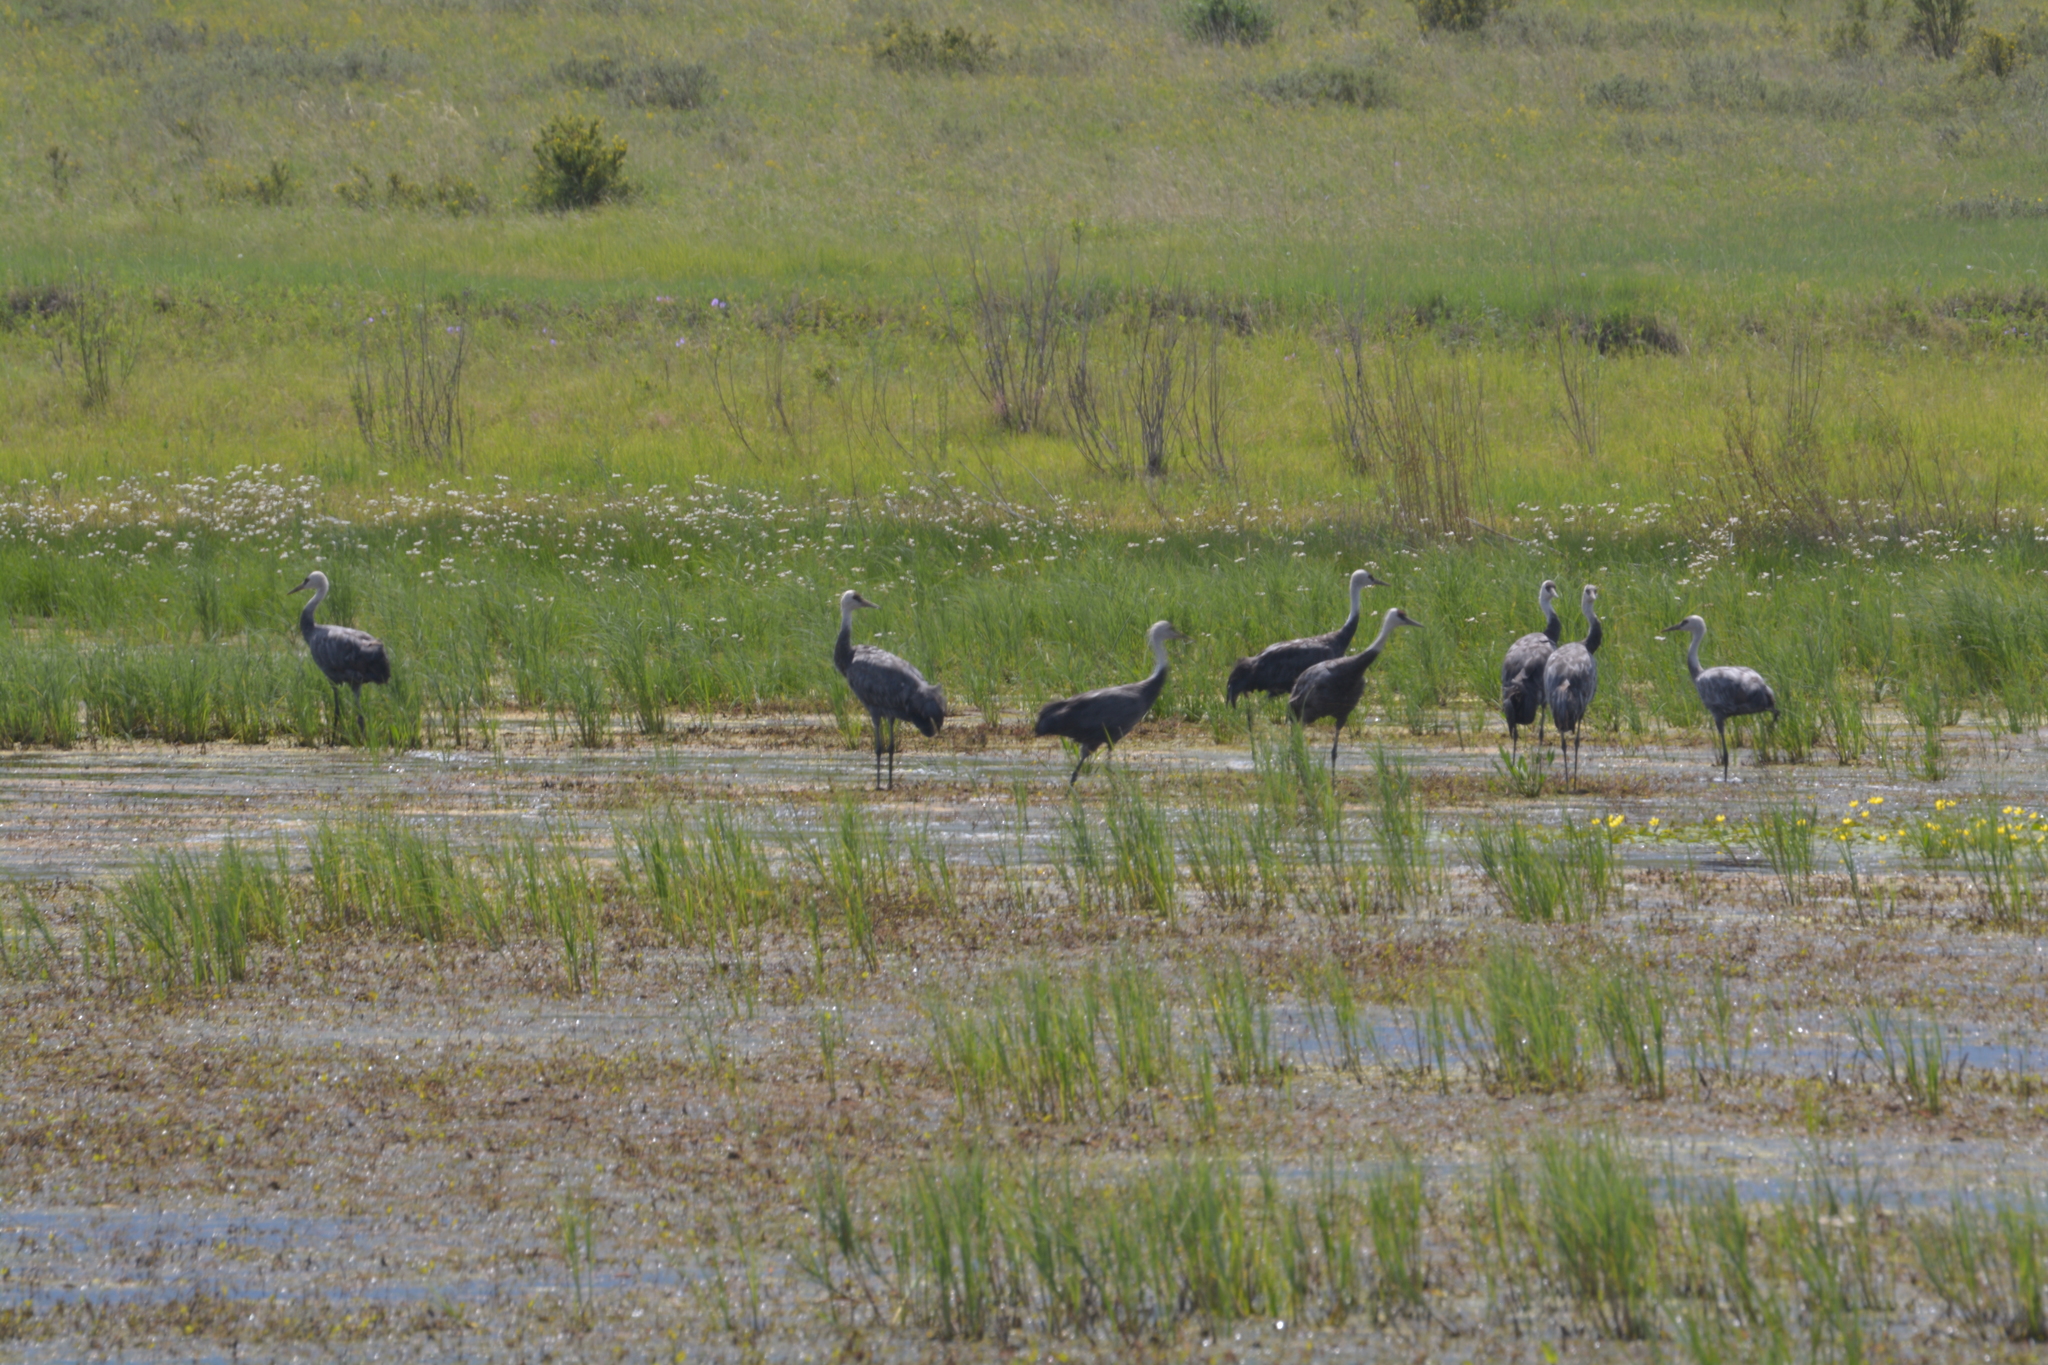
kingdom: Animalia
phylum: Chordata
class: Aves
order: Gruiformes
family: Gruidae
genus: Grus
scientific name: Grus monacha
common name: Hooded crane
